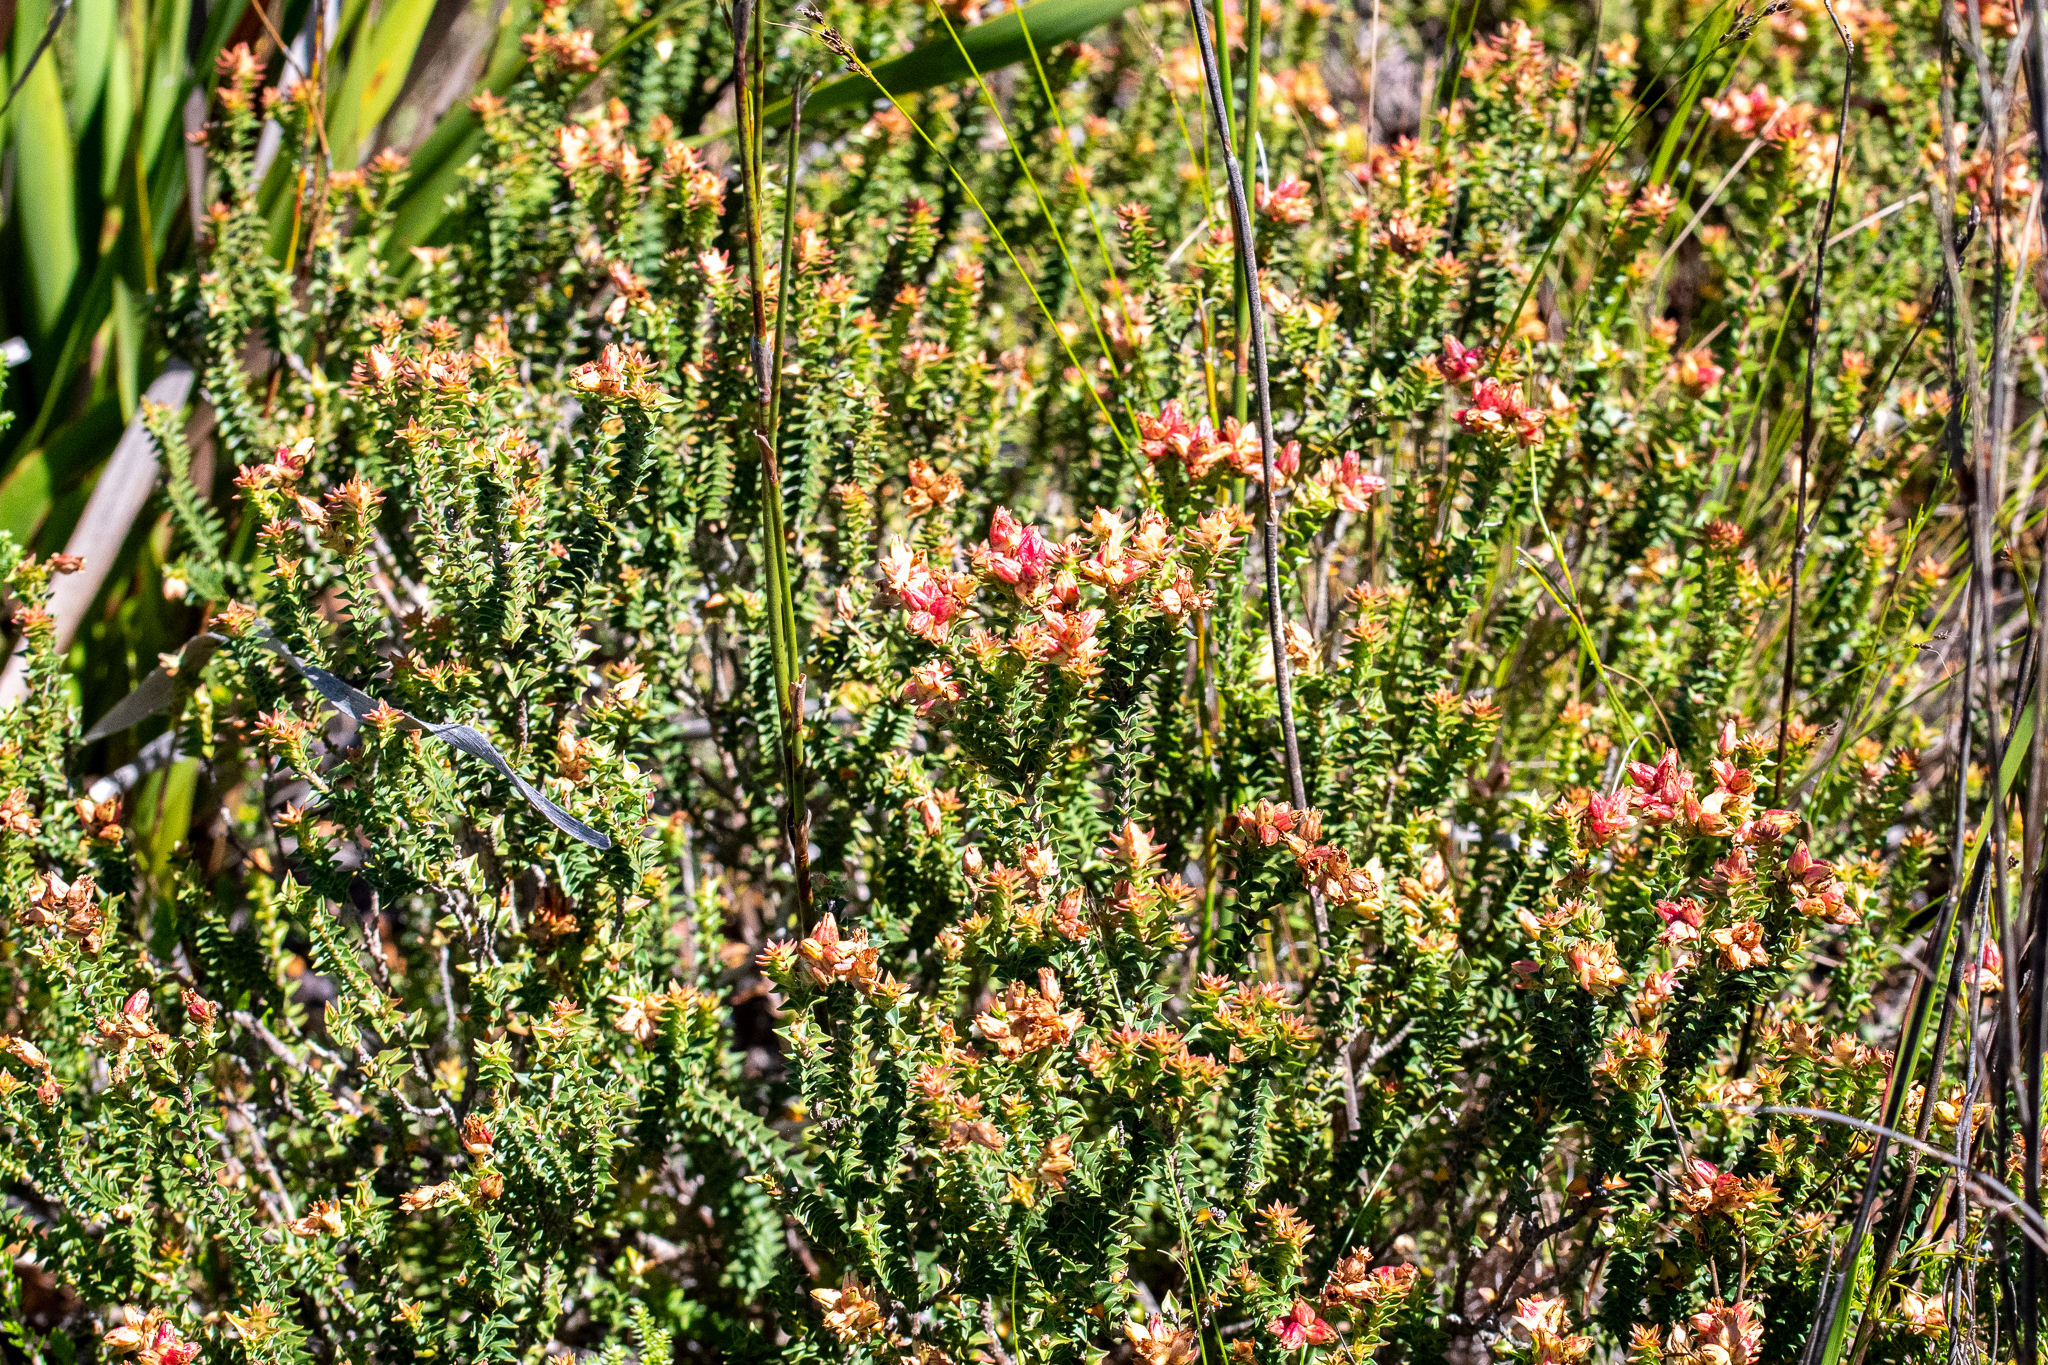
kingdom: Plantae
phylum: Tracheophyta
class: Magnoliopsida
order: Myrtales
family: Penaeaceae
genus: Penaea
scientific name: Penaea mucronata
